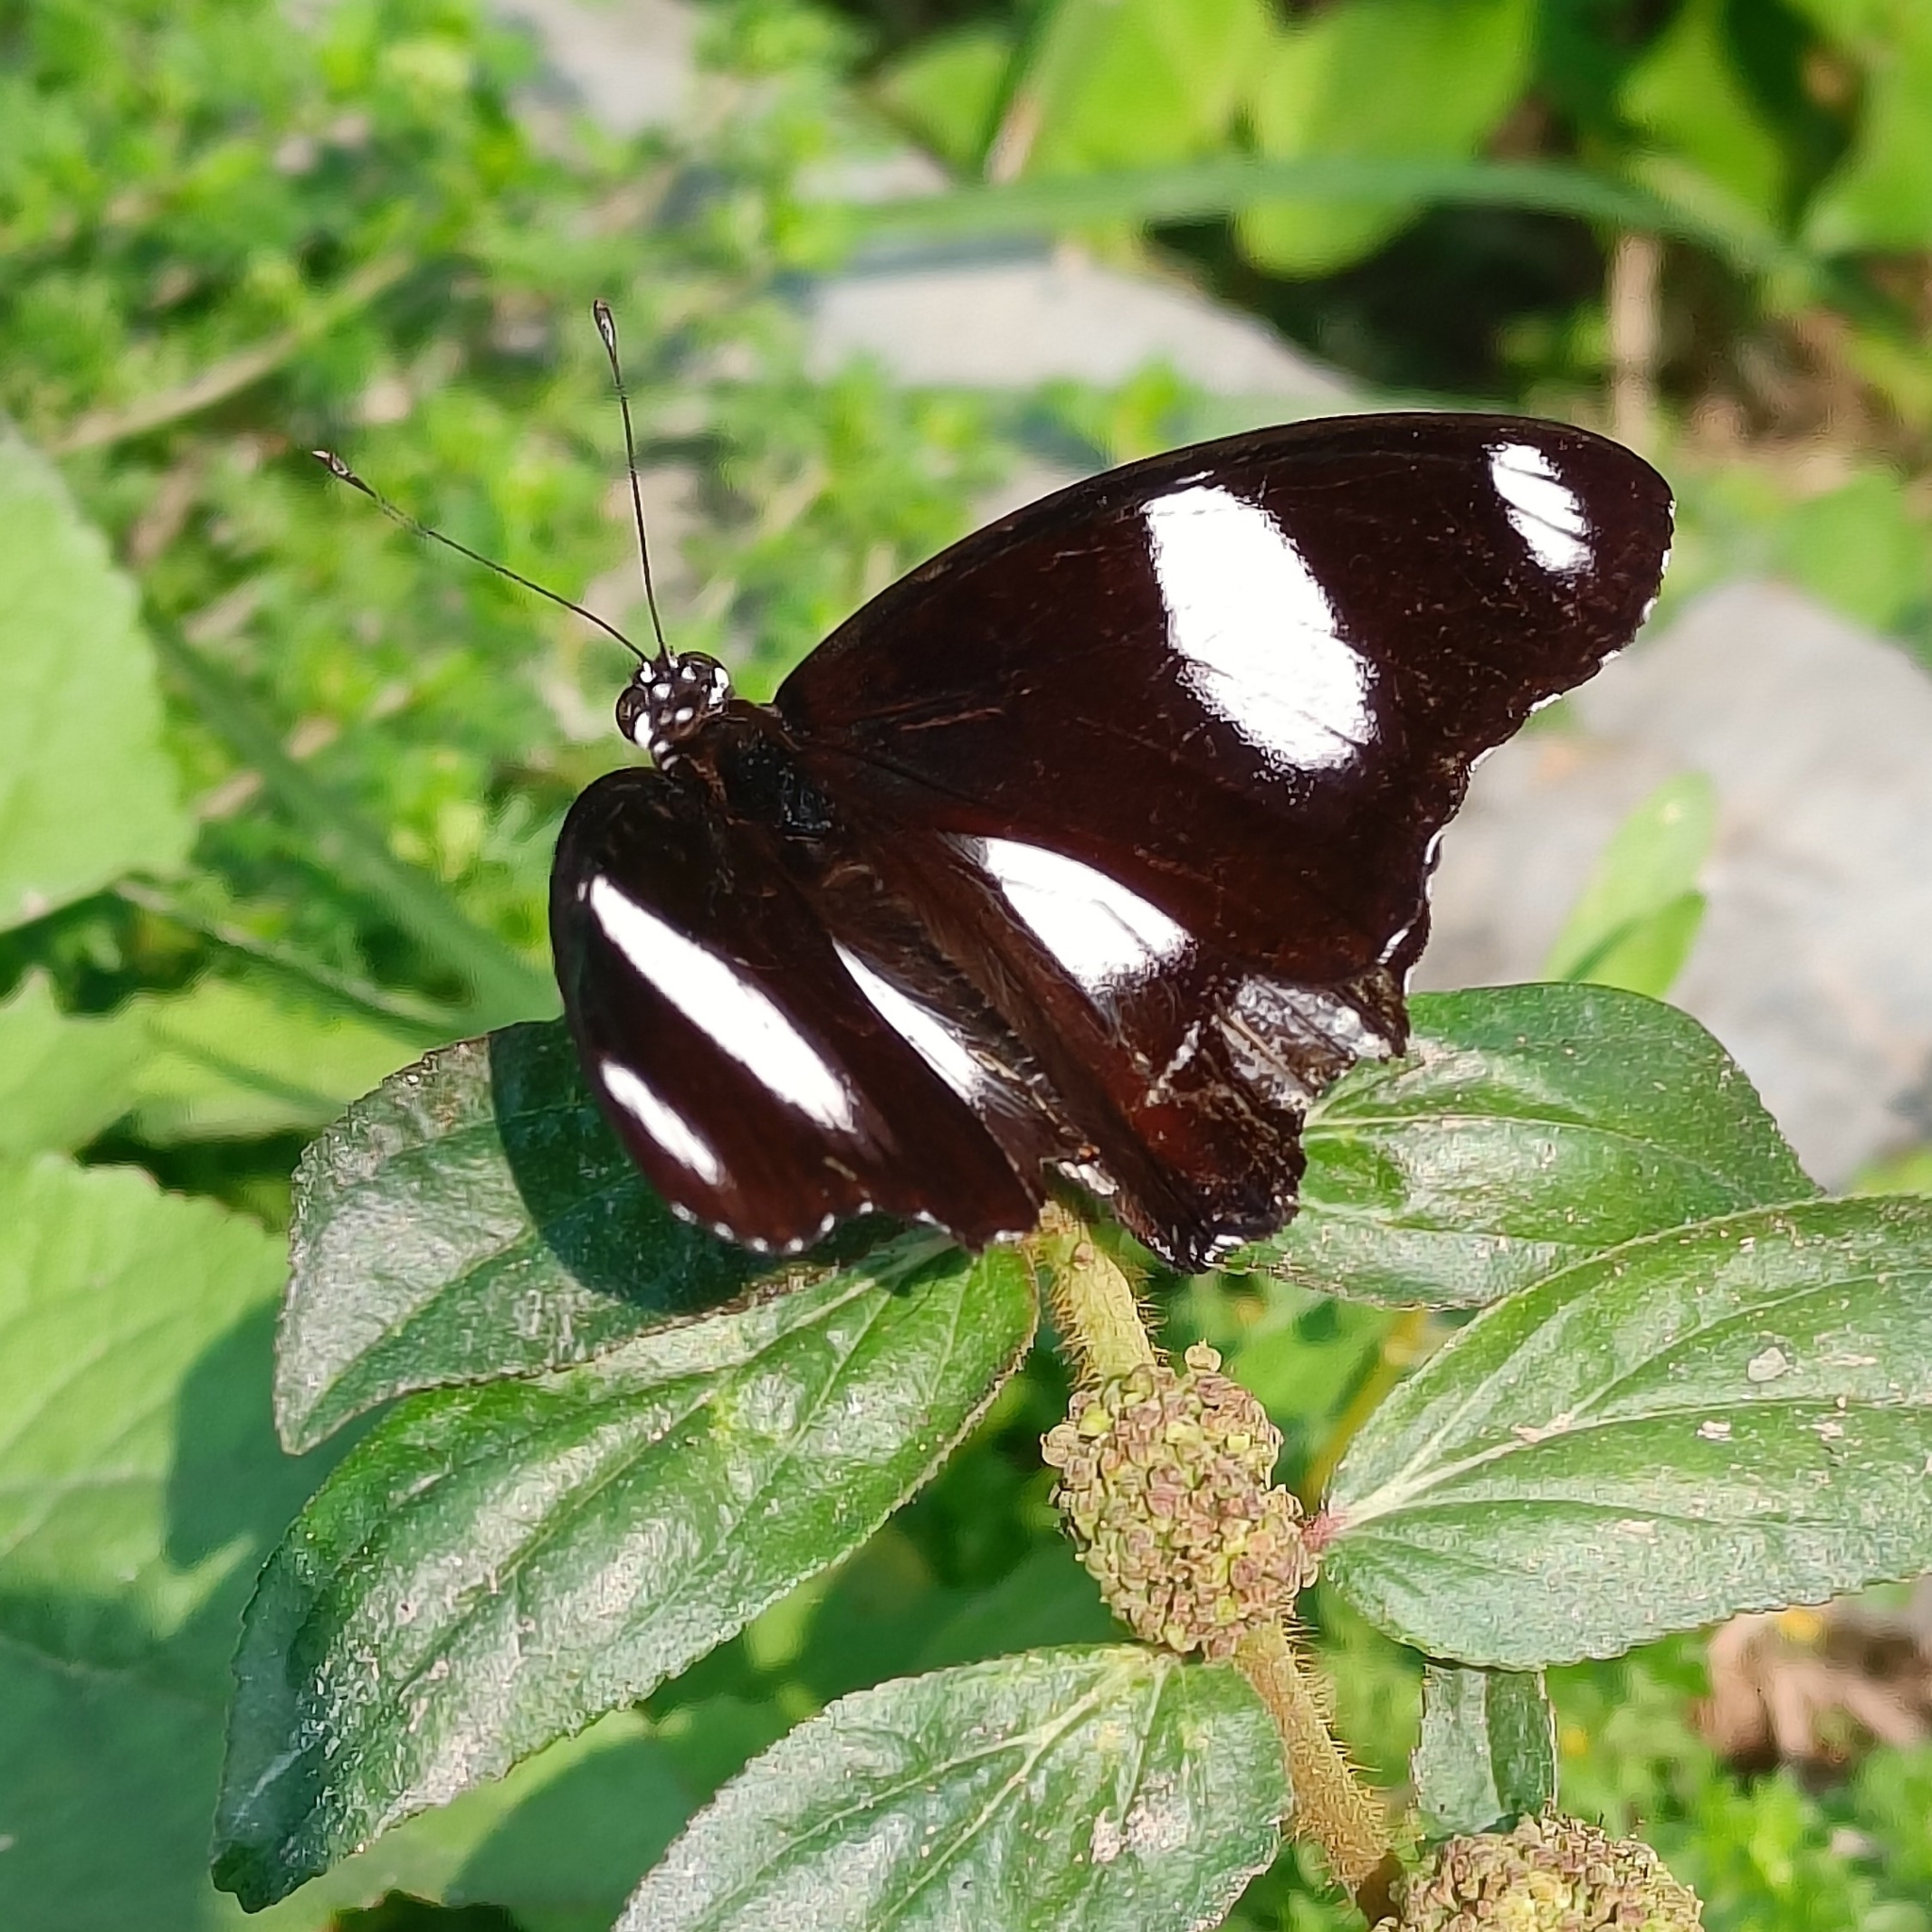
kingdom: Animalia
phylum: Arthropoda
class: Insecta
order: Lepidoptera
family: Nymphalidae
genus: Hypolimnas
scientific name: Hypolimnas misippus
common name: False plain tiger
